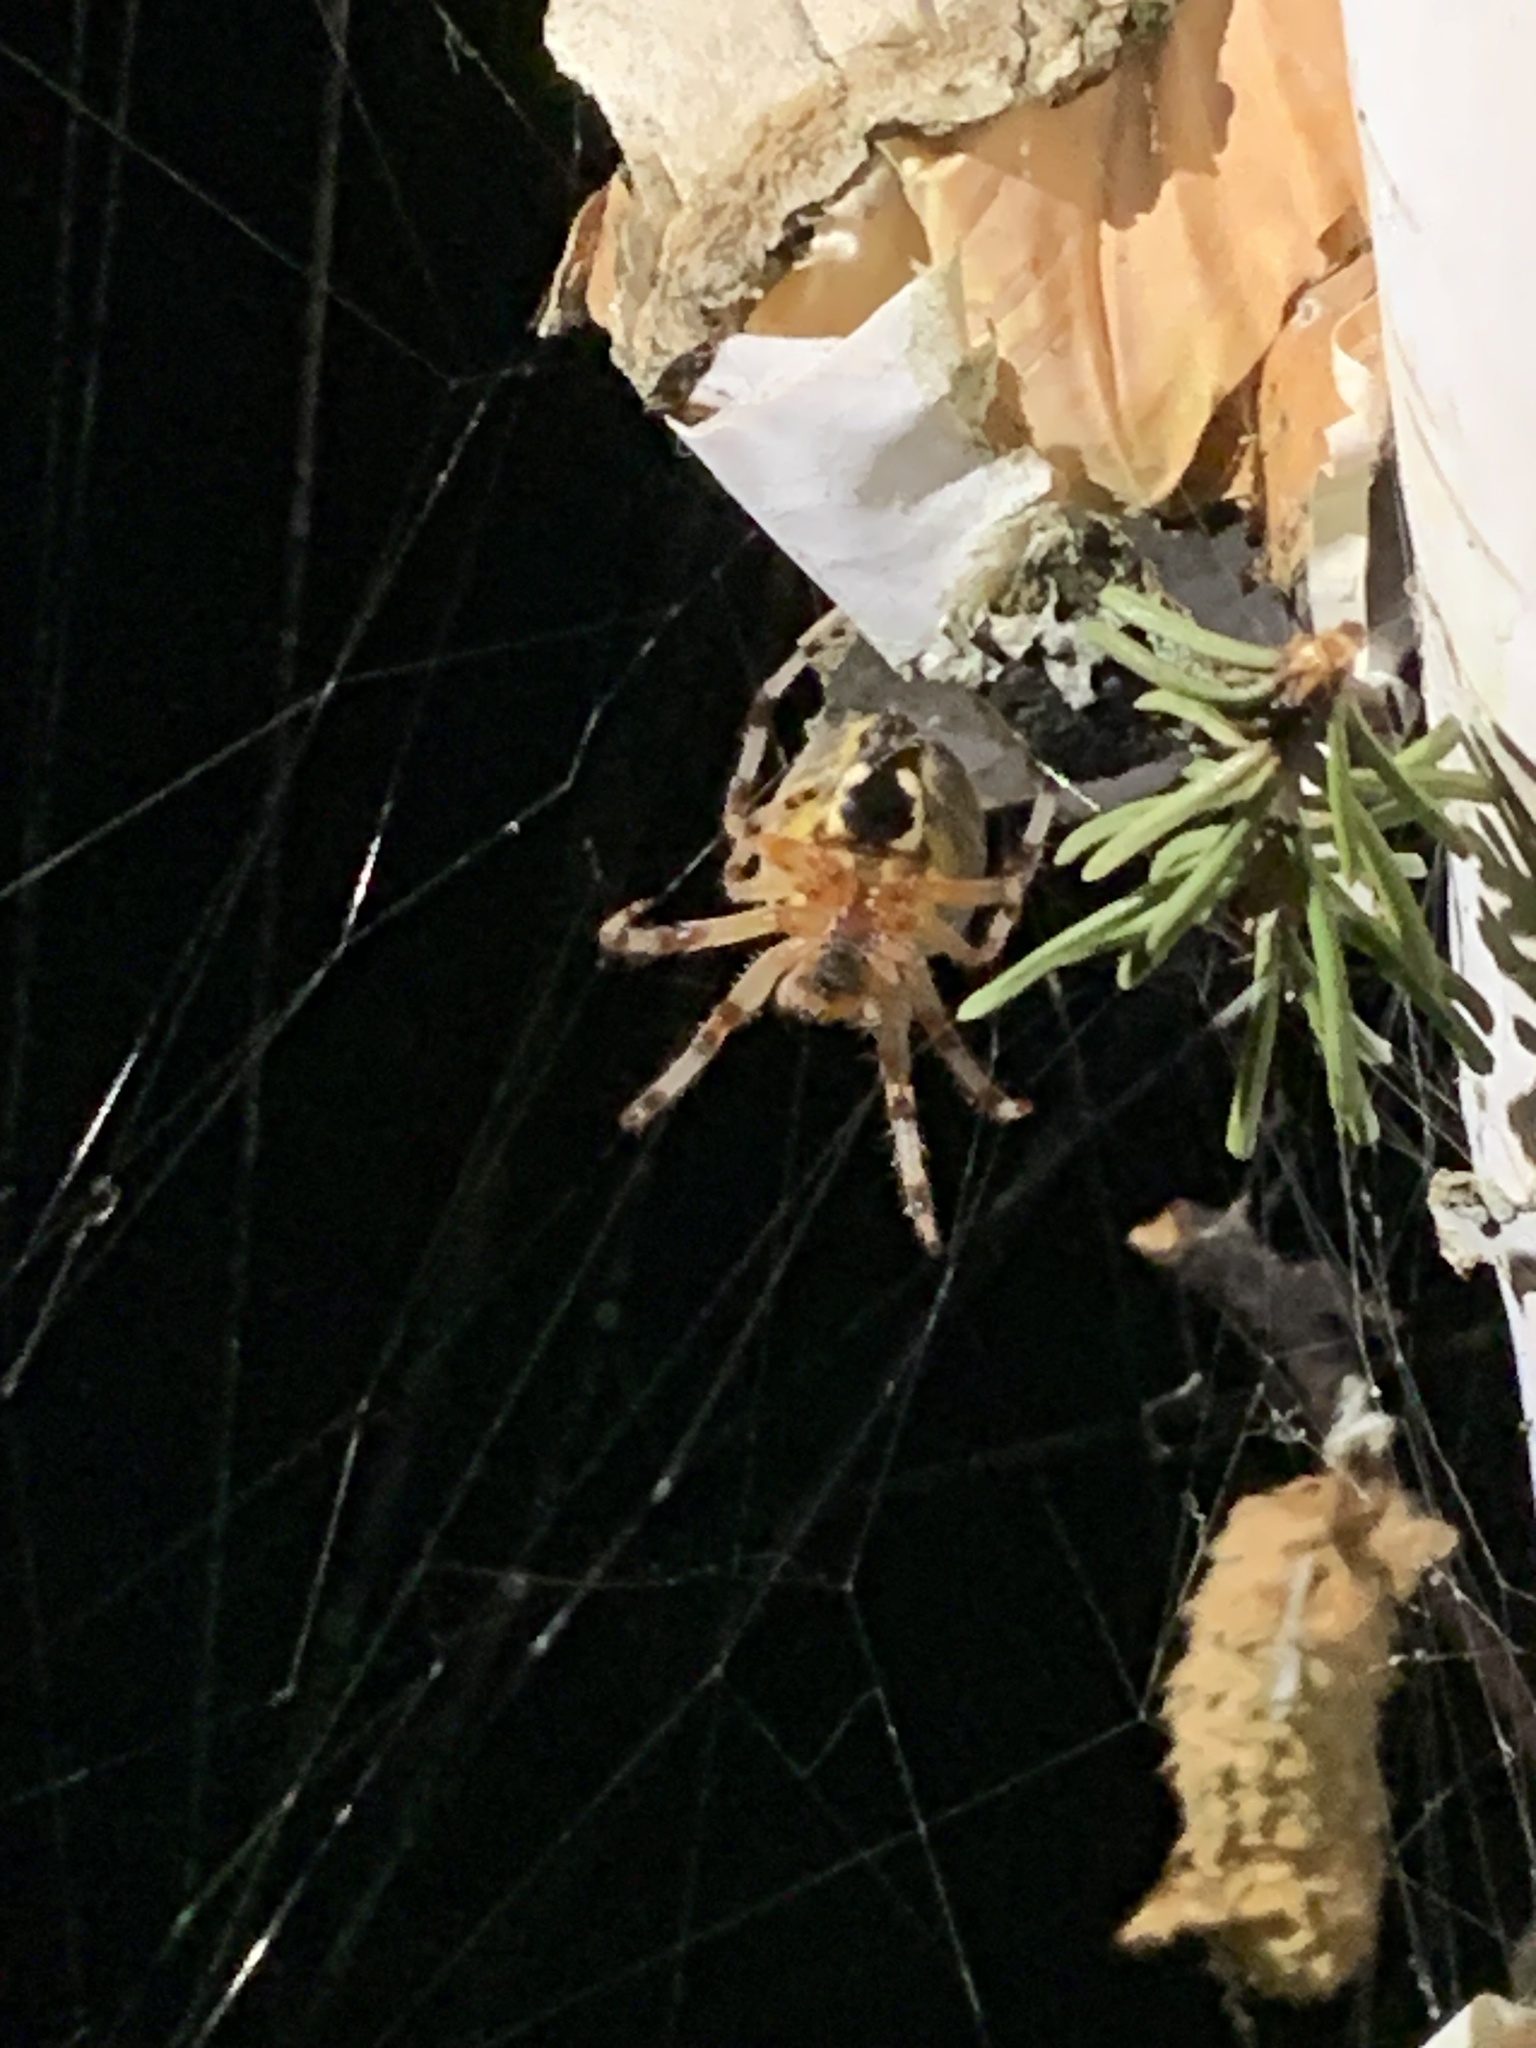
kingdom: Animalia
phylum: Arthropoda
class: Arachnida
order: Araneae
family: Araneidae
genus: Araneus
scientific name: Araneus marmoreus
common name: Marbled orbweaver
